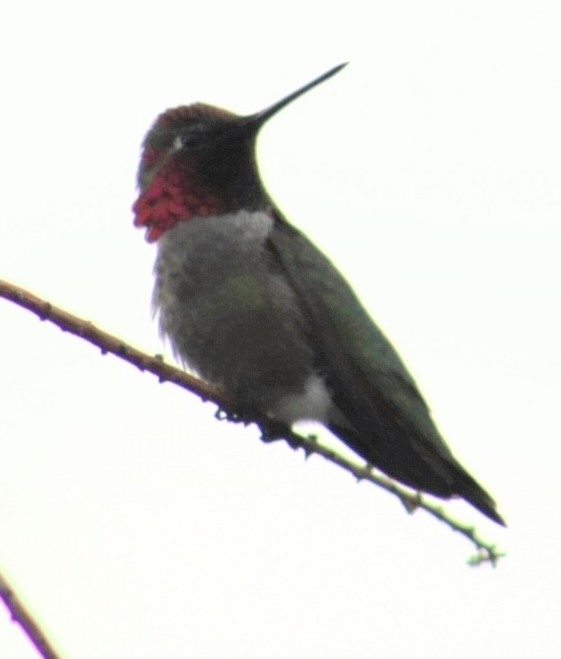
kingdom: Animalia
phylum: Chordata
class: Aves
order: Apodiformes
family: Trochilidae
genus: Calypte
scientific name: Calypte anna
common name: Anna's hummingbird
